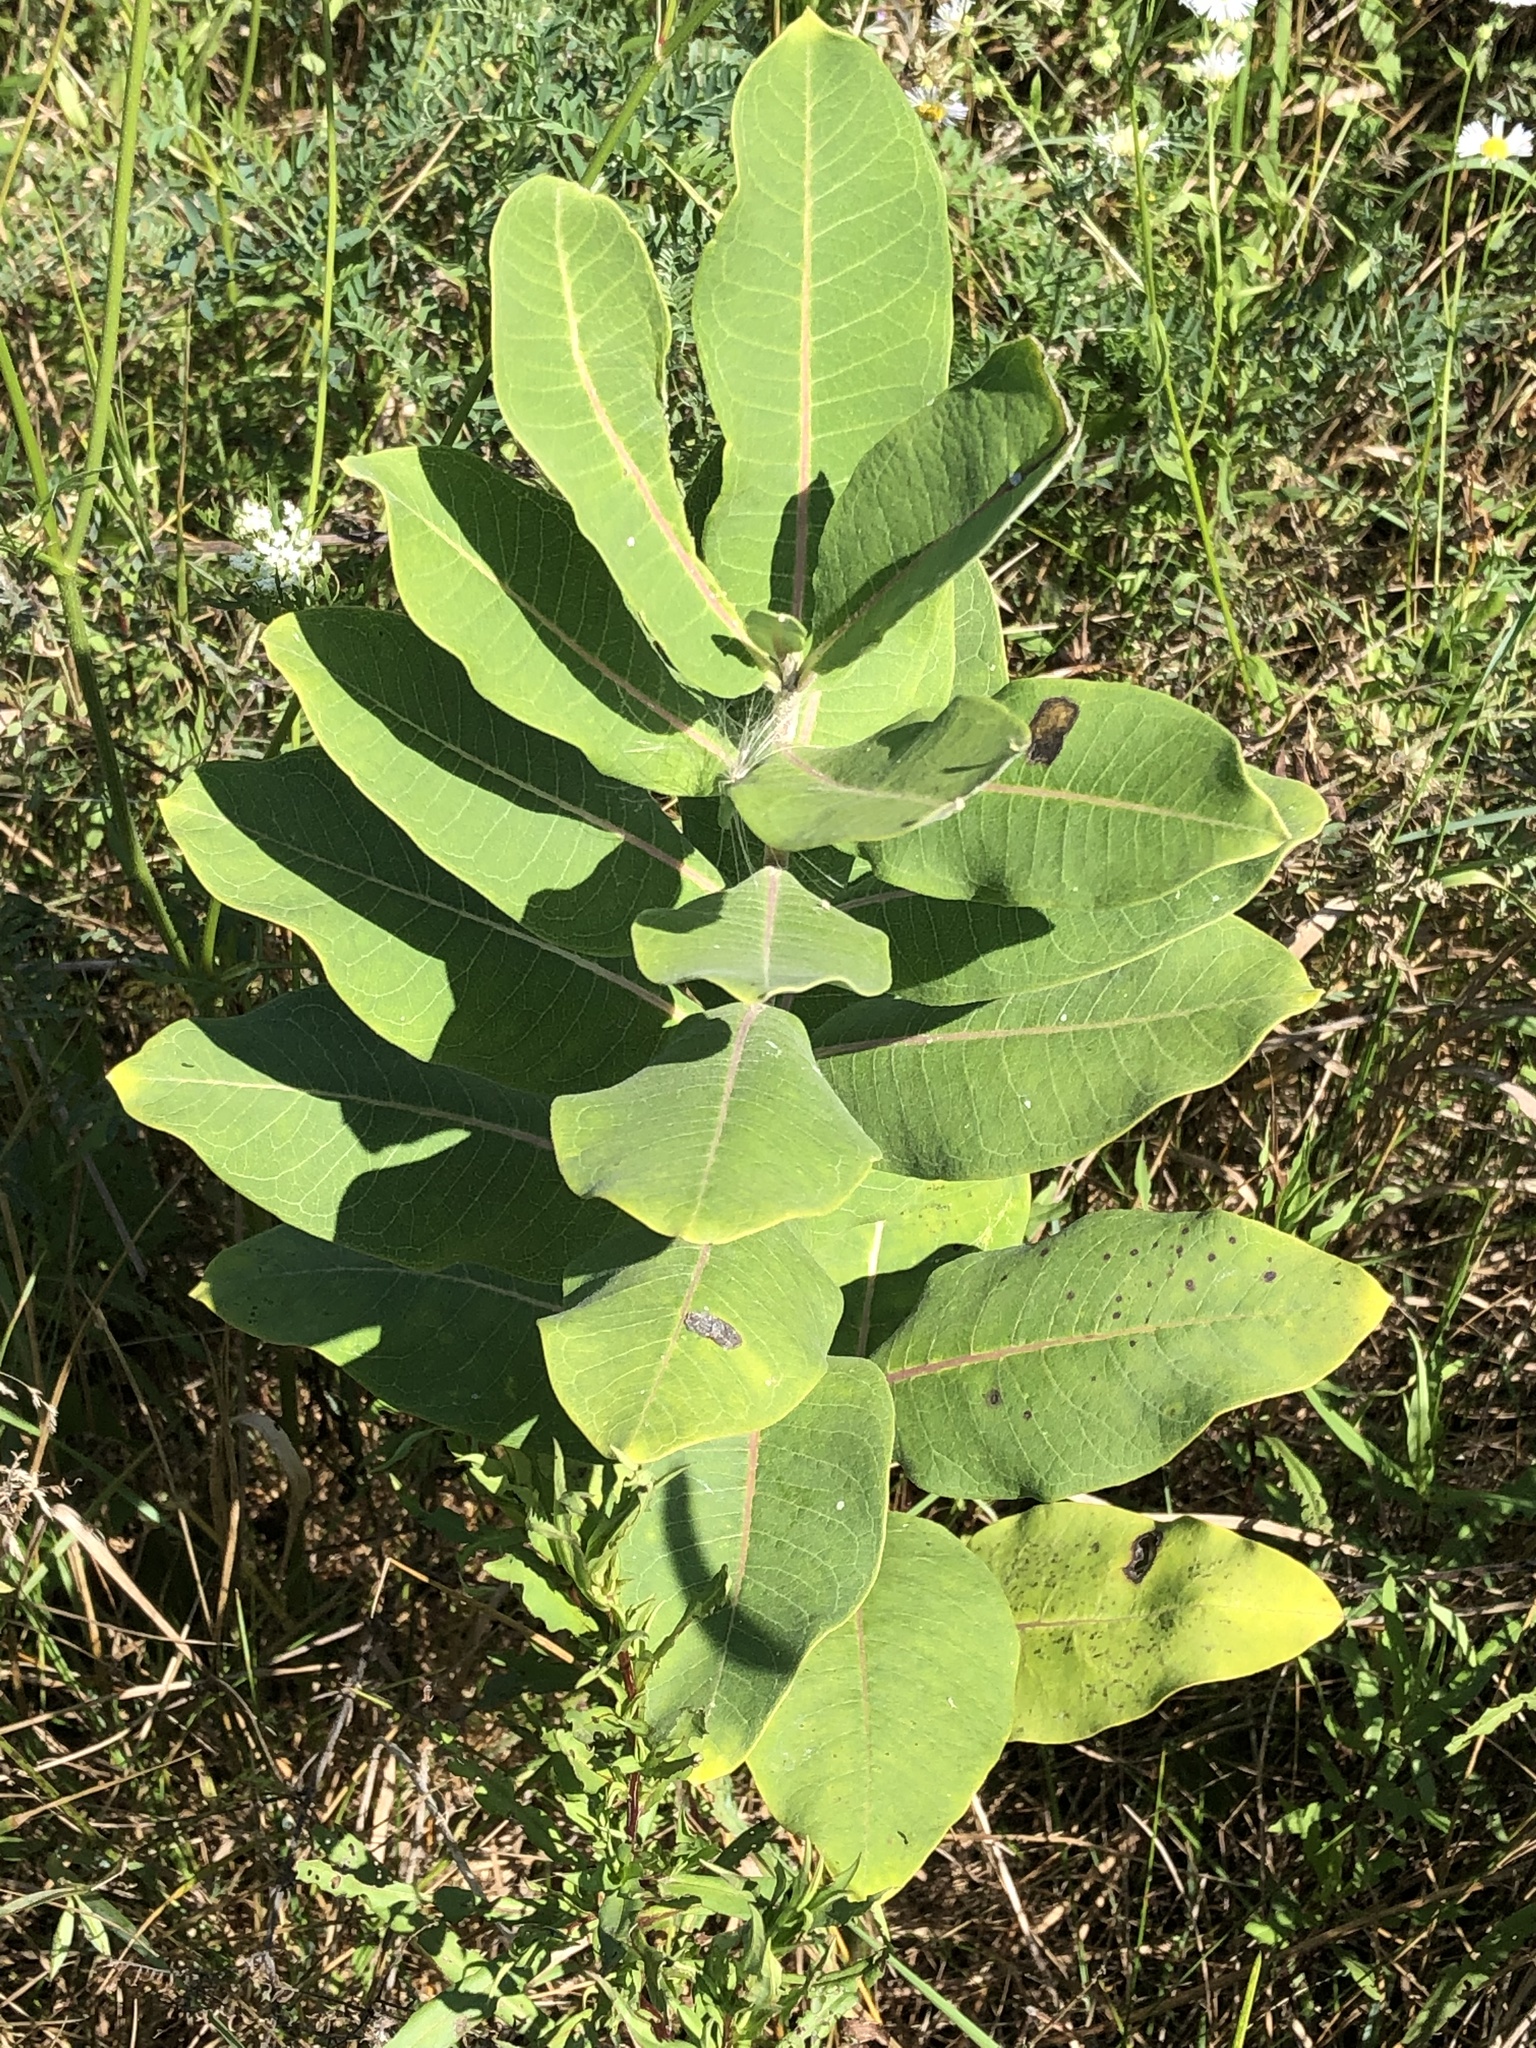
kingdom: Plantae
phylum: Tracheophyta
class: Magnoliopsida
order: Gentianales
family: Apocynaceae
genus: Asclepias
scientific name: Asclepias syriaca
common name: Common milkweed
